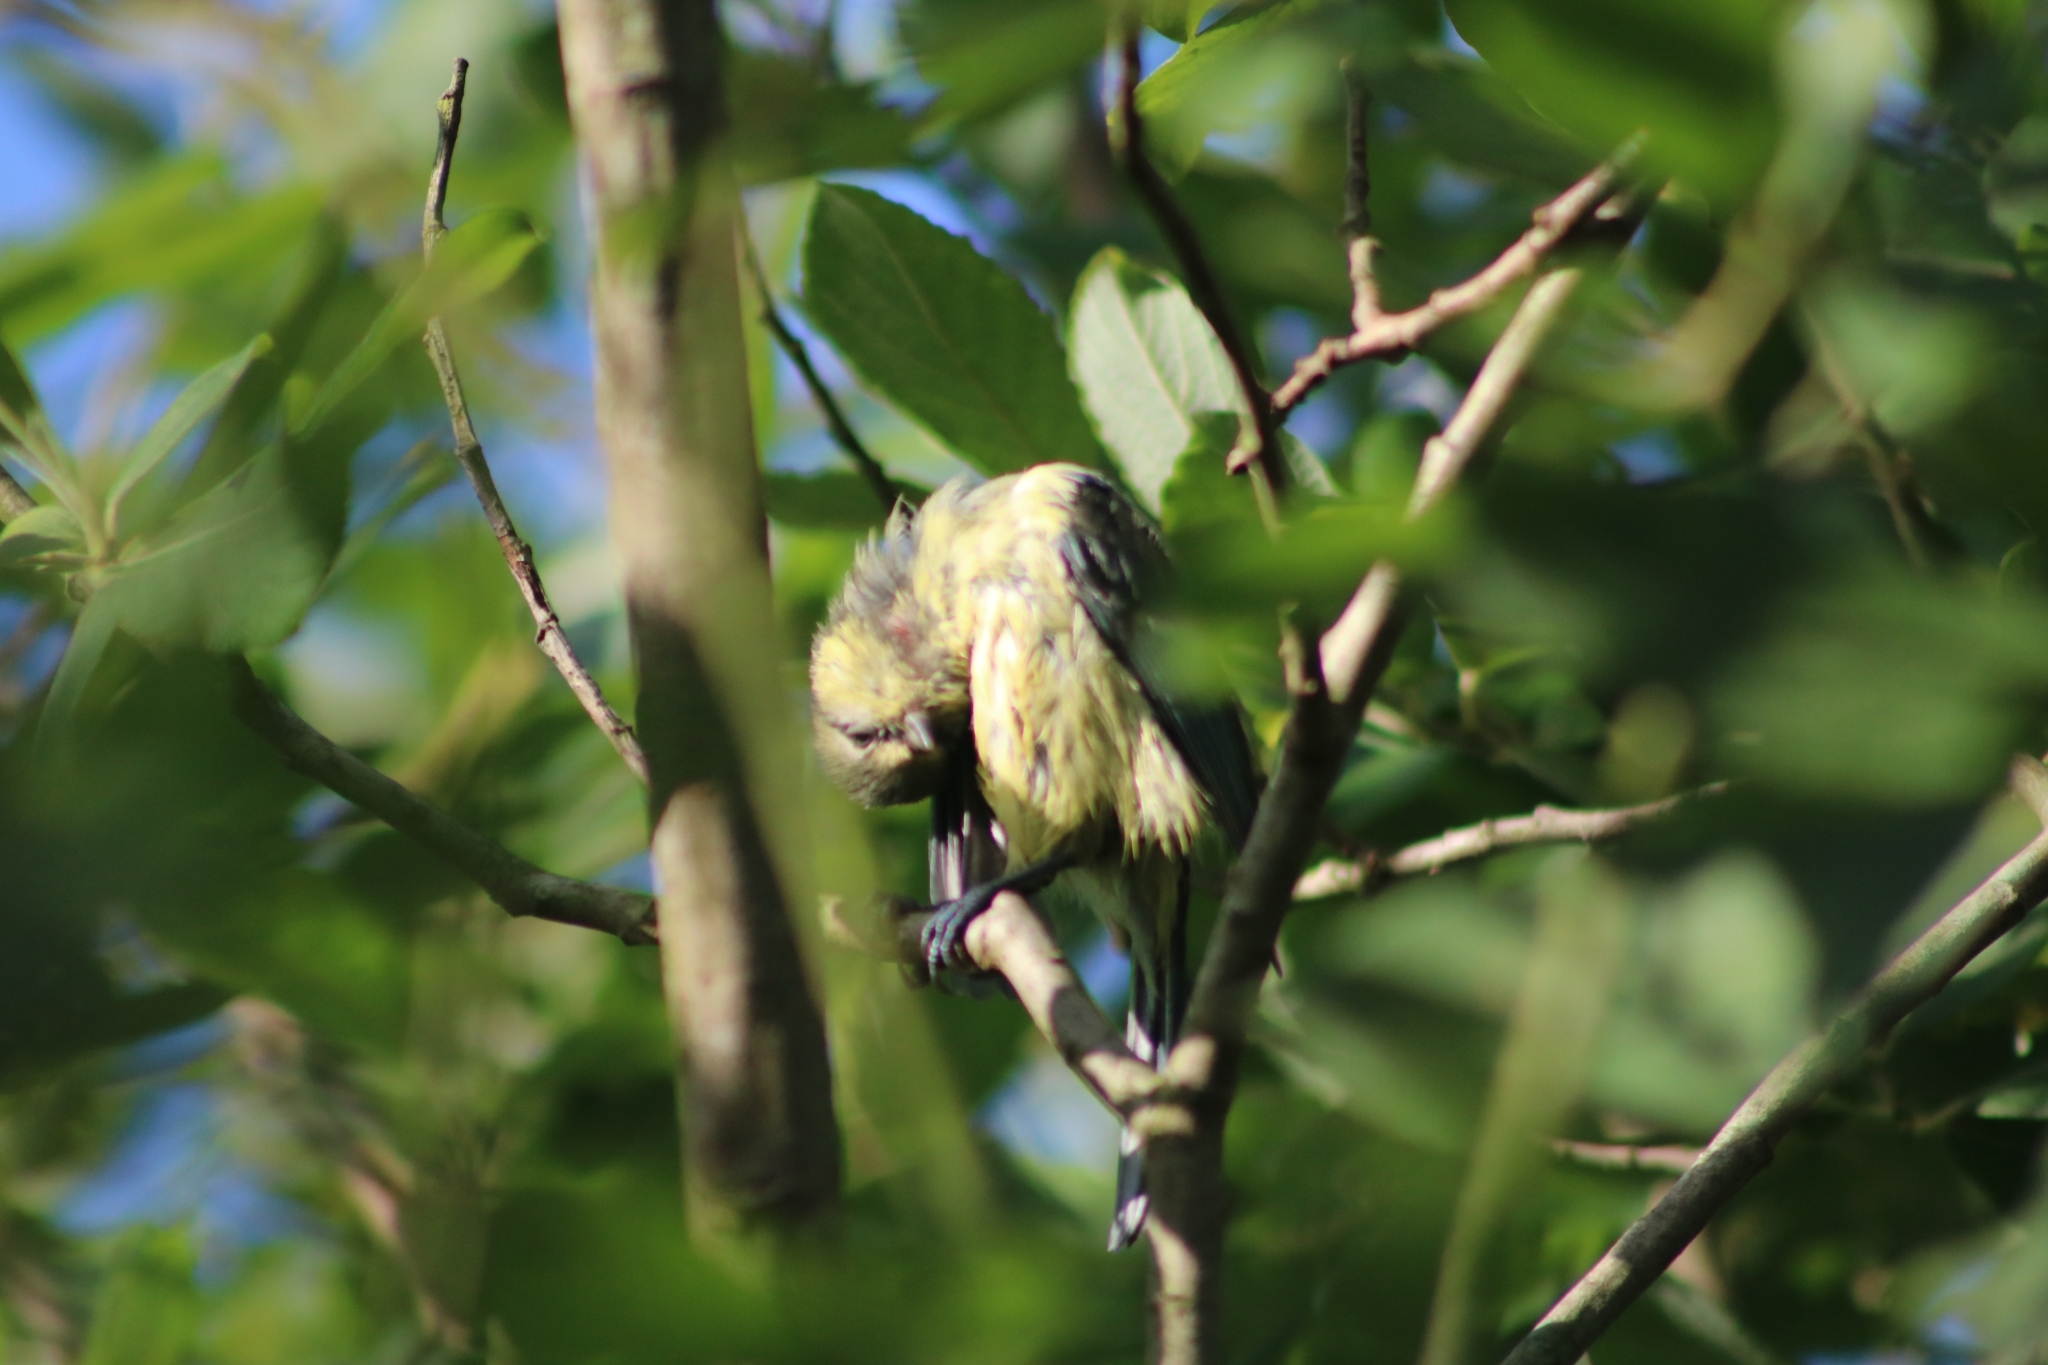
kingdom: Animalia
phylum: Chordata
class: Aves
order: Passeriformes
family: Paridae
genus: Cyanistes
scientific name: Cyanistes caeruleus
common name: Eurasian blue tit
